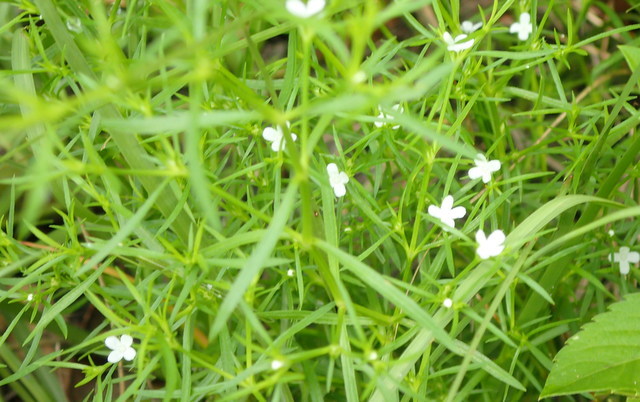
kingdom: Plantae
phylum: Tracheophyta
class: Magnoliopsida
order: Lamiales
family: Tetrachondraceae
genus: Polypremum
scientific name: Polypremum procumbens
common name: Juniper-leaf
